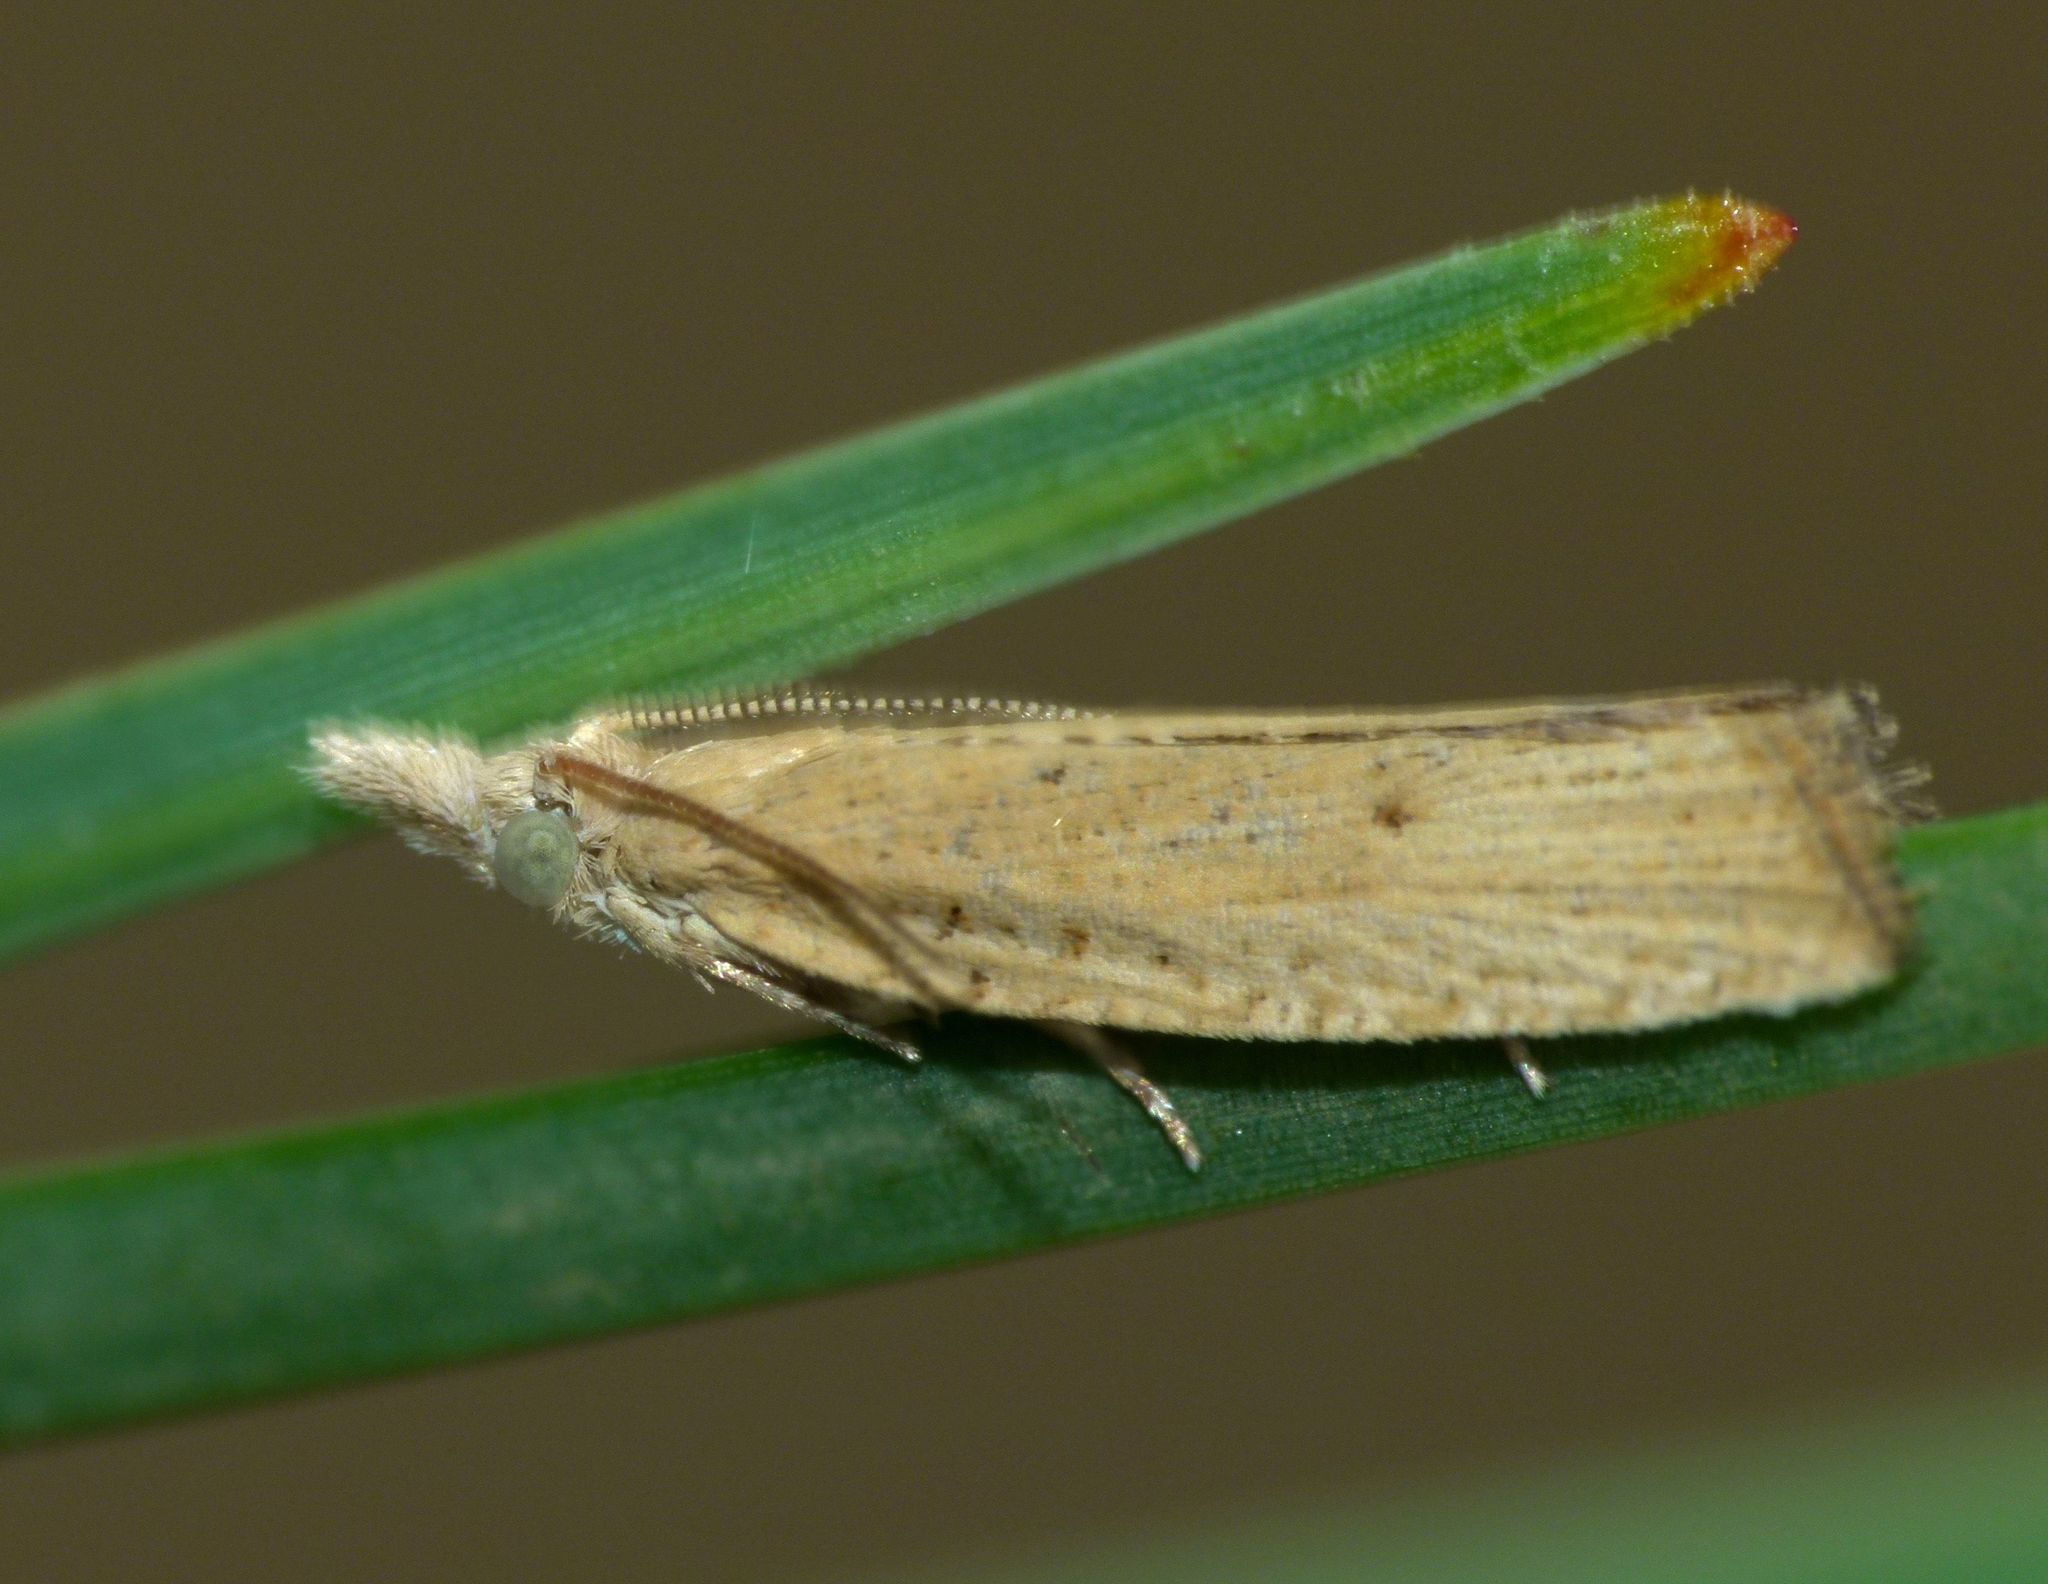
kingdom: Animalia
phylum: Arthropoda
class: Insecta
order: Lepidoptera
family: Tortricidae
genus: Bactra
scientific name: Bactra noteraula
